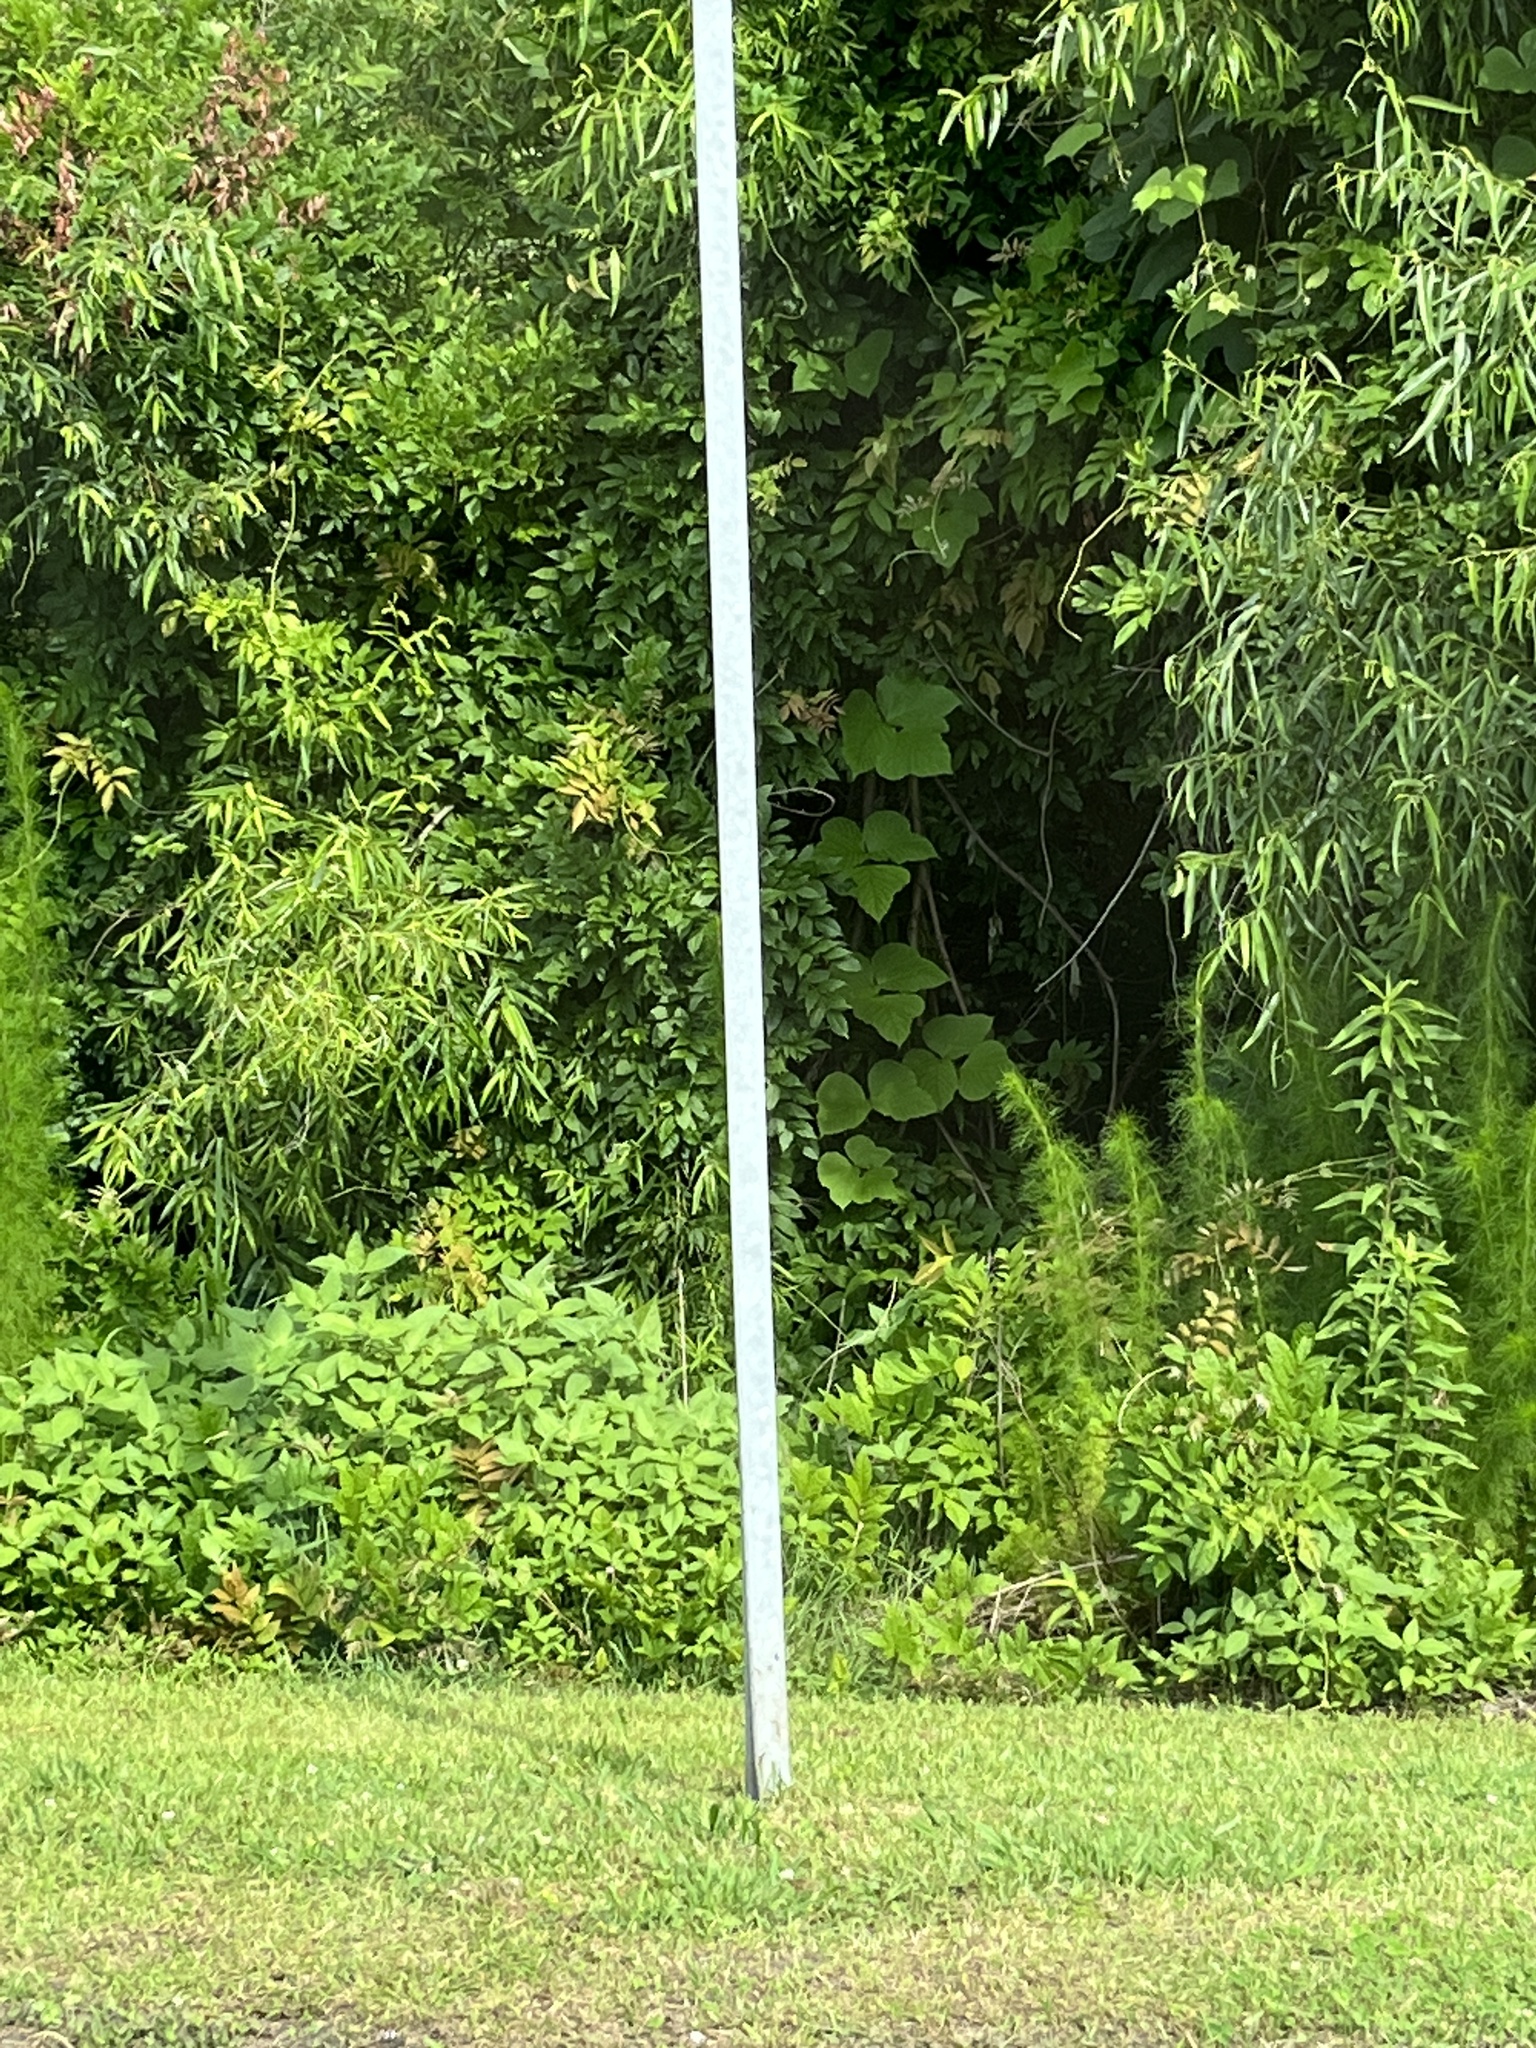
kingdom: Plantae
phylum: Tracheophyta
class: Magnoliopsida
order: Fabales
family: Fabaceae
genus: Pueraria
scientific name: Pueraria montana
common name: Kudzu
